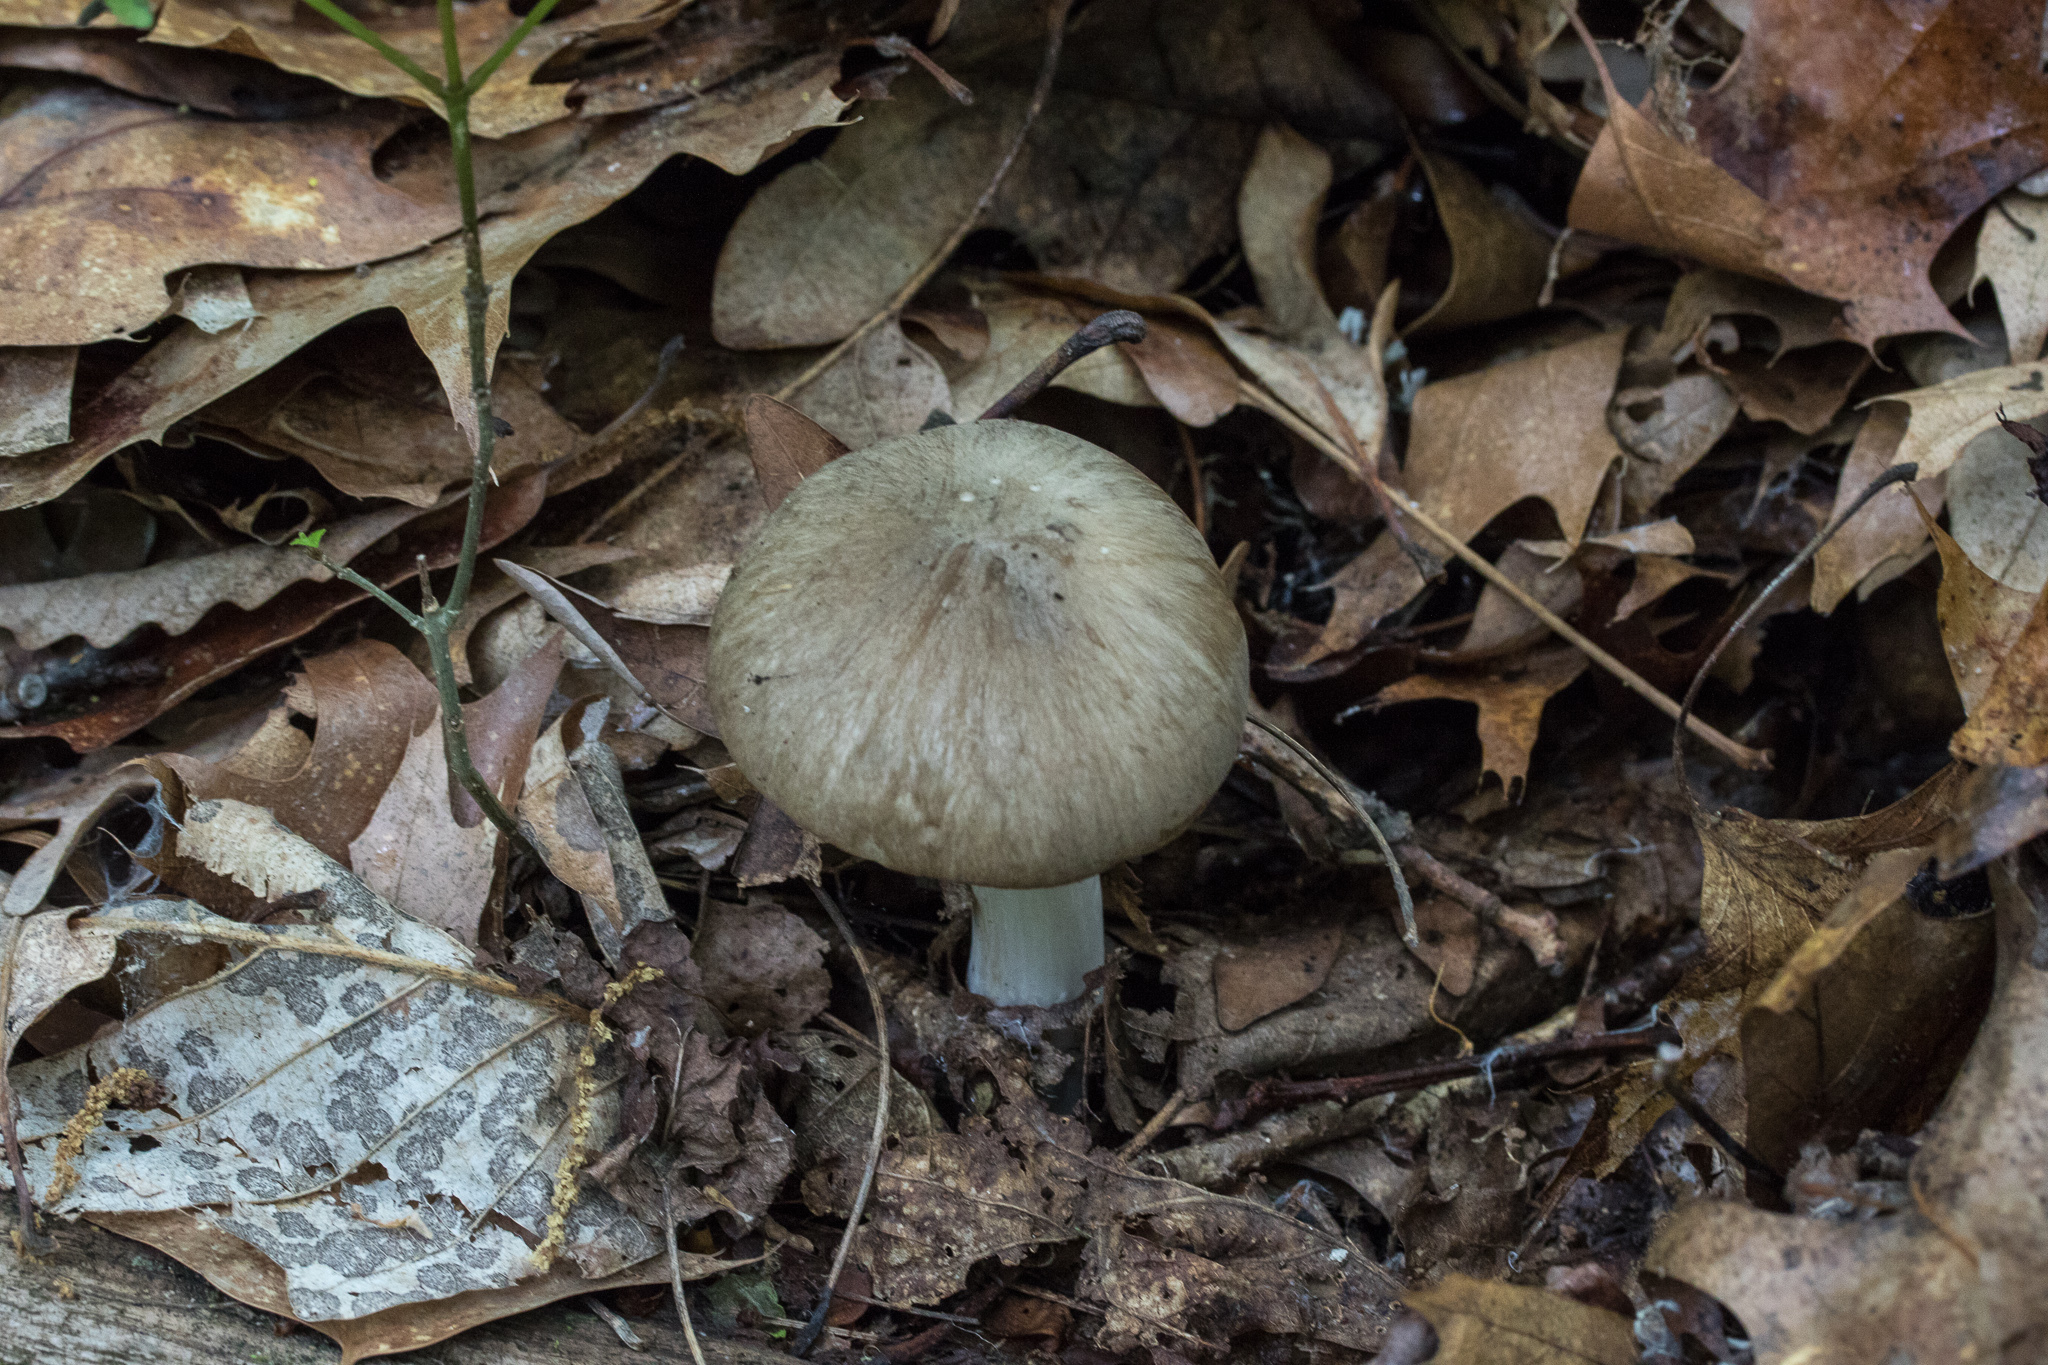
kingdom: Fungi
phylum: Basidiomycota
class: Agaricomycetes
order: Agaricales
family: Tricholomataceae
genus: Megacollybia
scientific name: Megacollybia rodmanii
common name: Eastern american platterful mushroom
